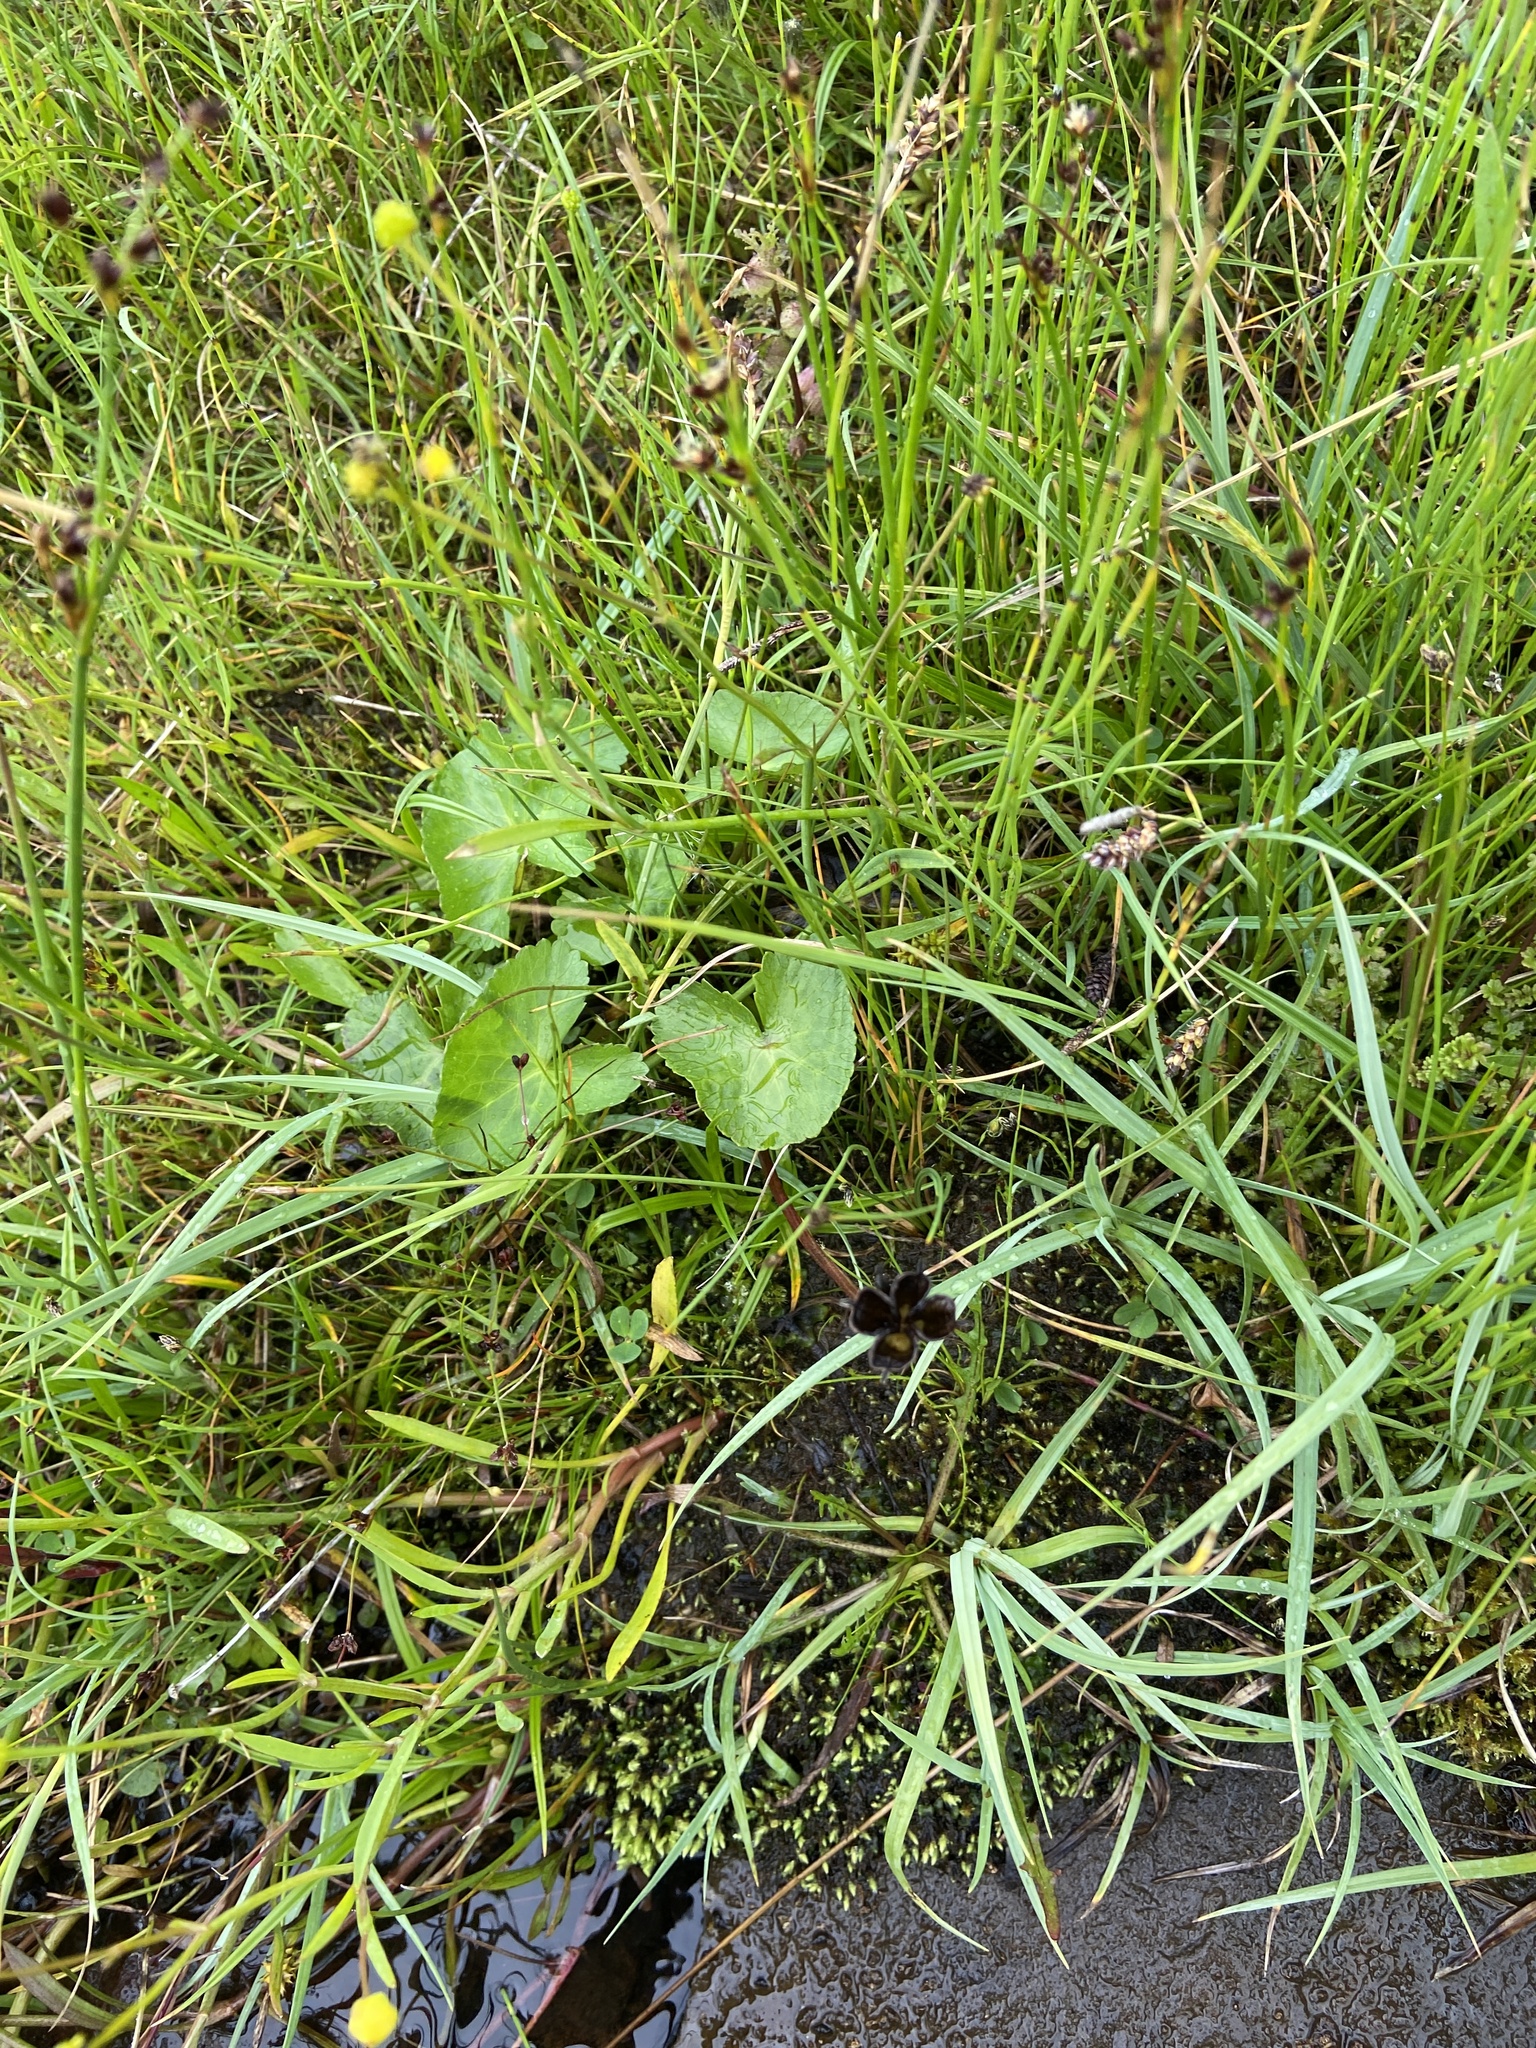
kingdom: Plantae
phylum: Tracheophyta
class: Magnoliopsida
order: Ranunculales
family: Ranunculaceae
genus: Caltha
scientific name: Caltha palustris
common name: Marsh marigold
